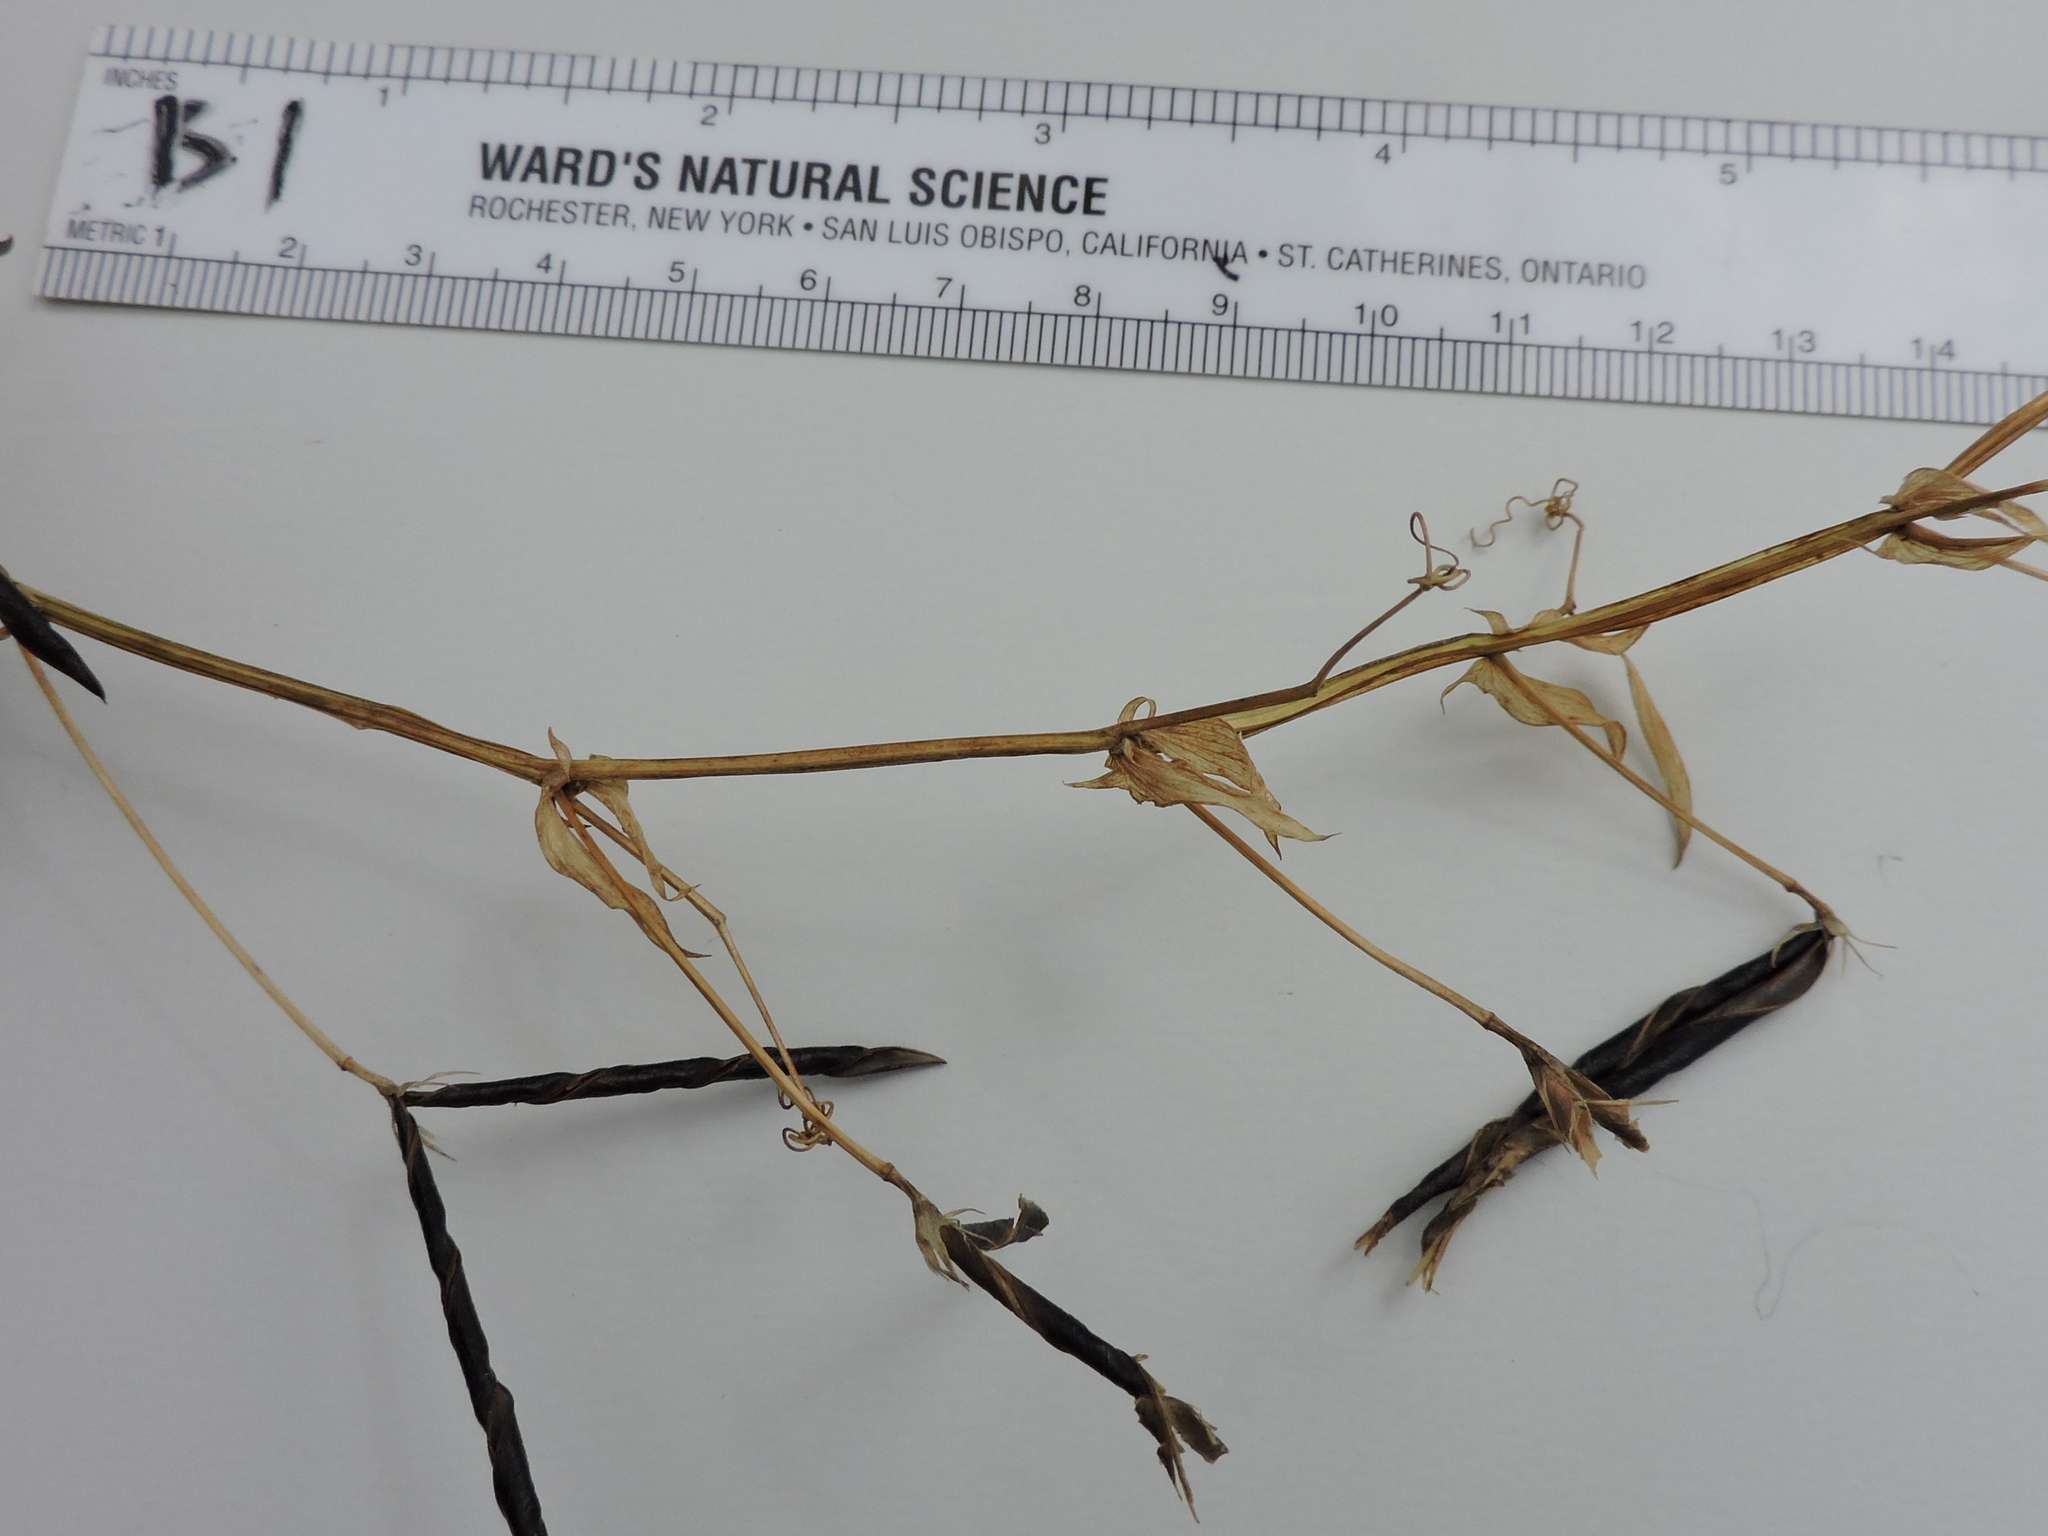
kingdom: Plantae
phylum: Tracheophyta
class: Magnoliopsida
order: Fabales
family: Fabaceae
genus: Lathyrus
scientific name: Lathyrus hirsutus
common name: Hairy vetchling
